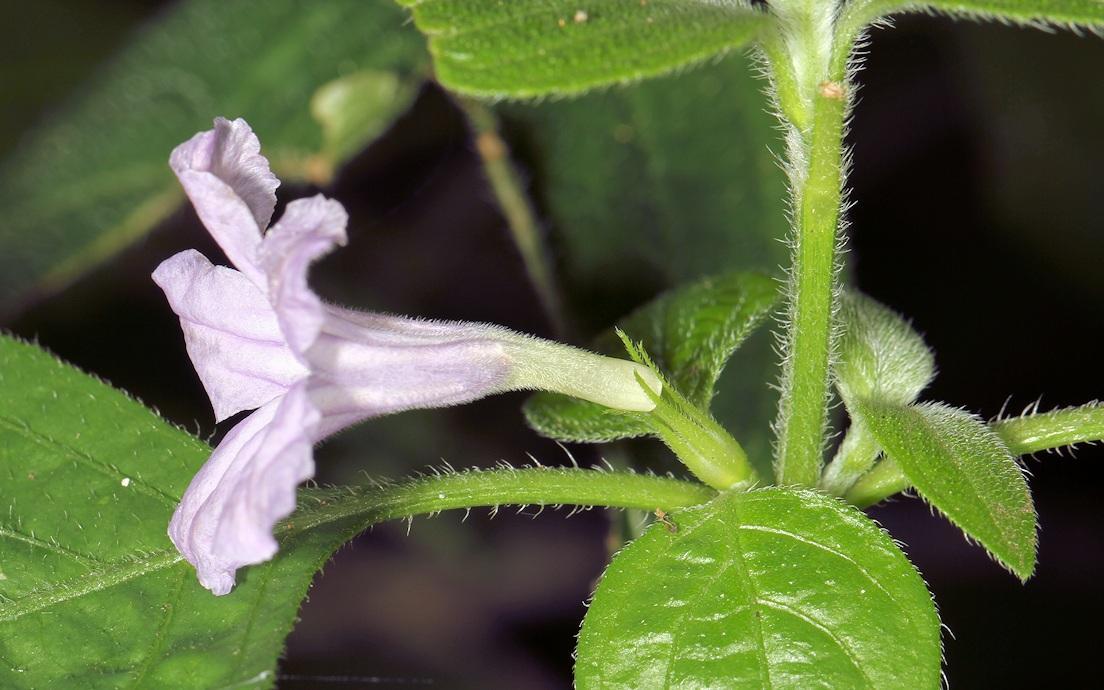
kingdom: Plantae
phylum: Tracheophyta
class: Magnoliopsida
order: Lamiales
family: Acanthaceae
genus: Ruellia
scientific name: Ruellia prostrata
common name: Prostrate wild petunia
